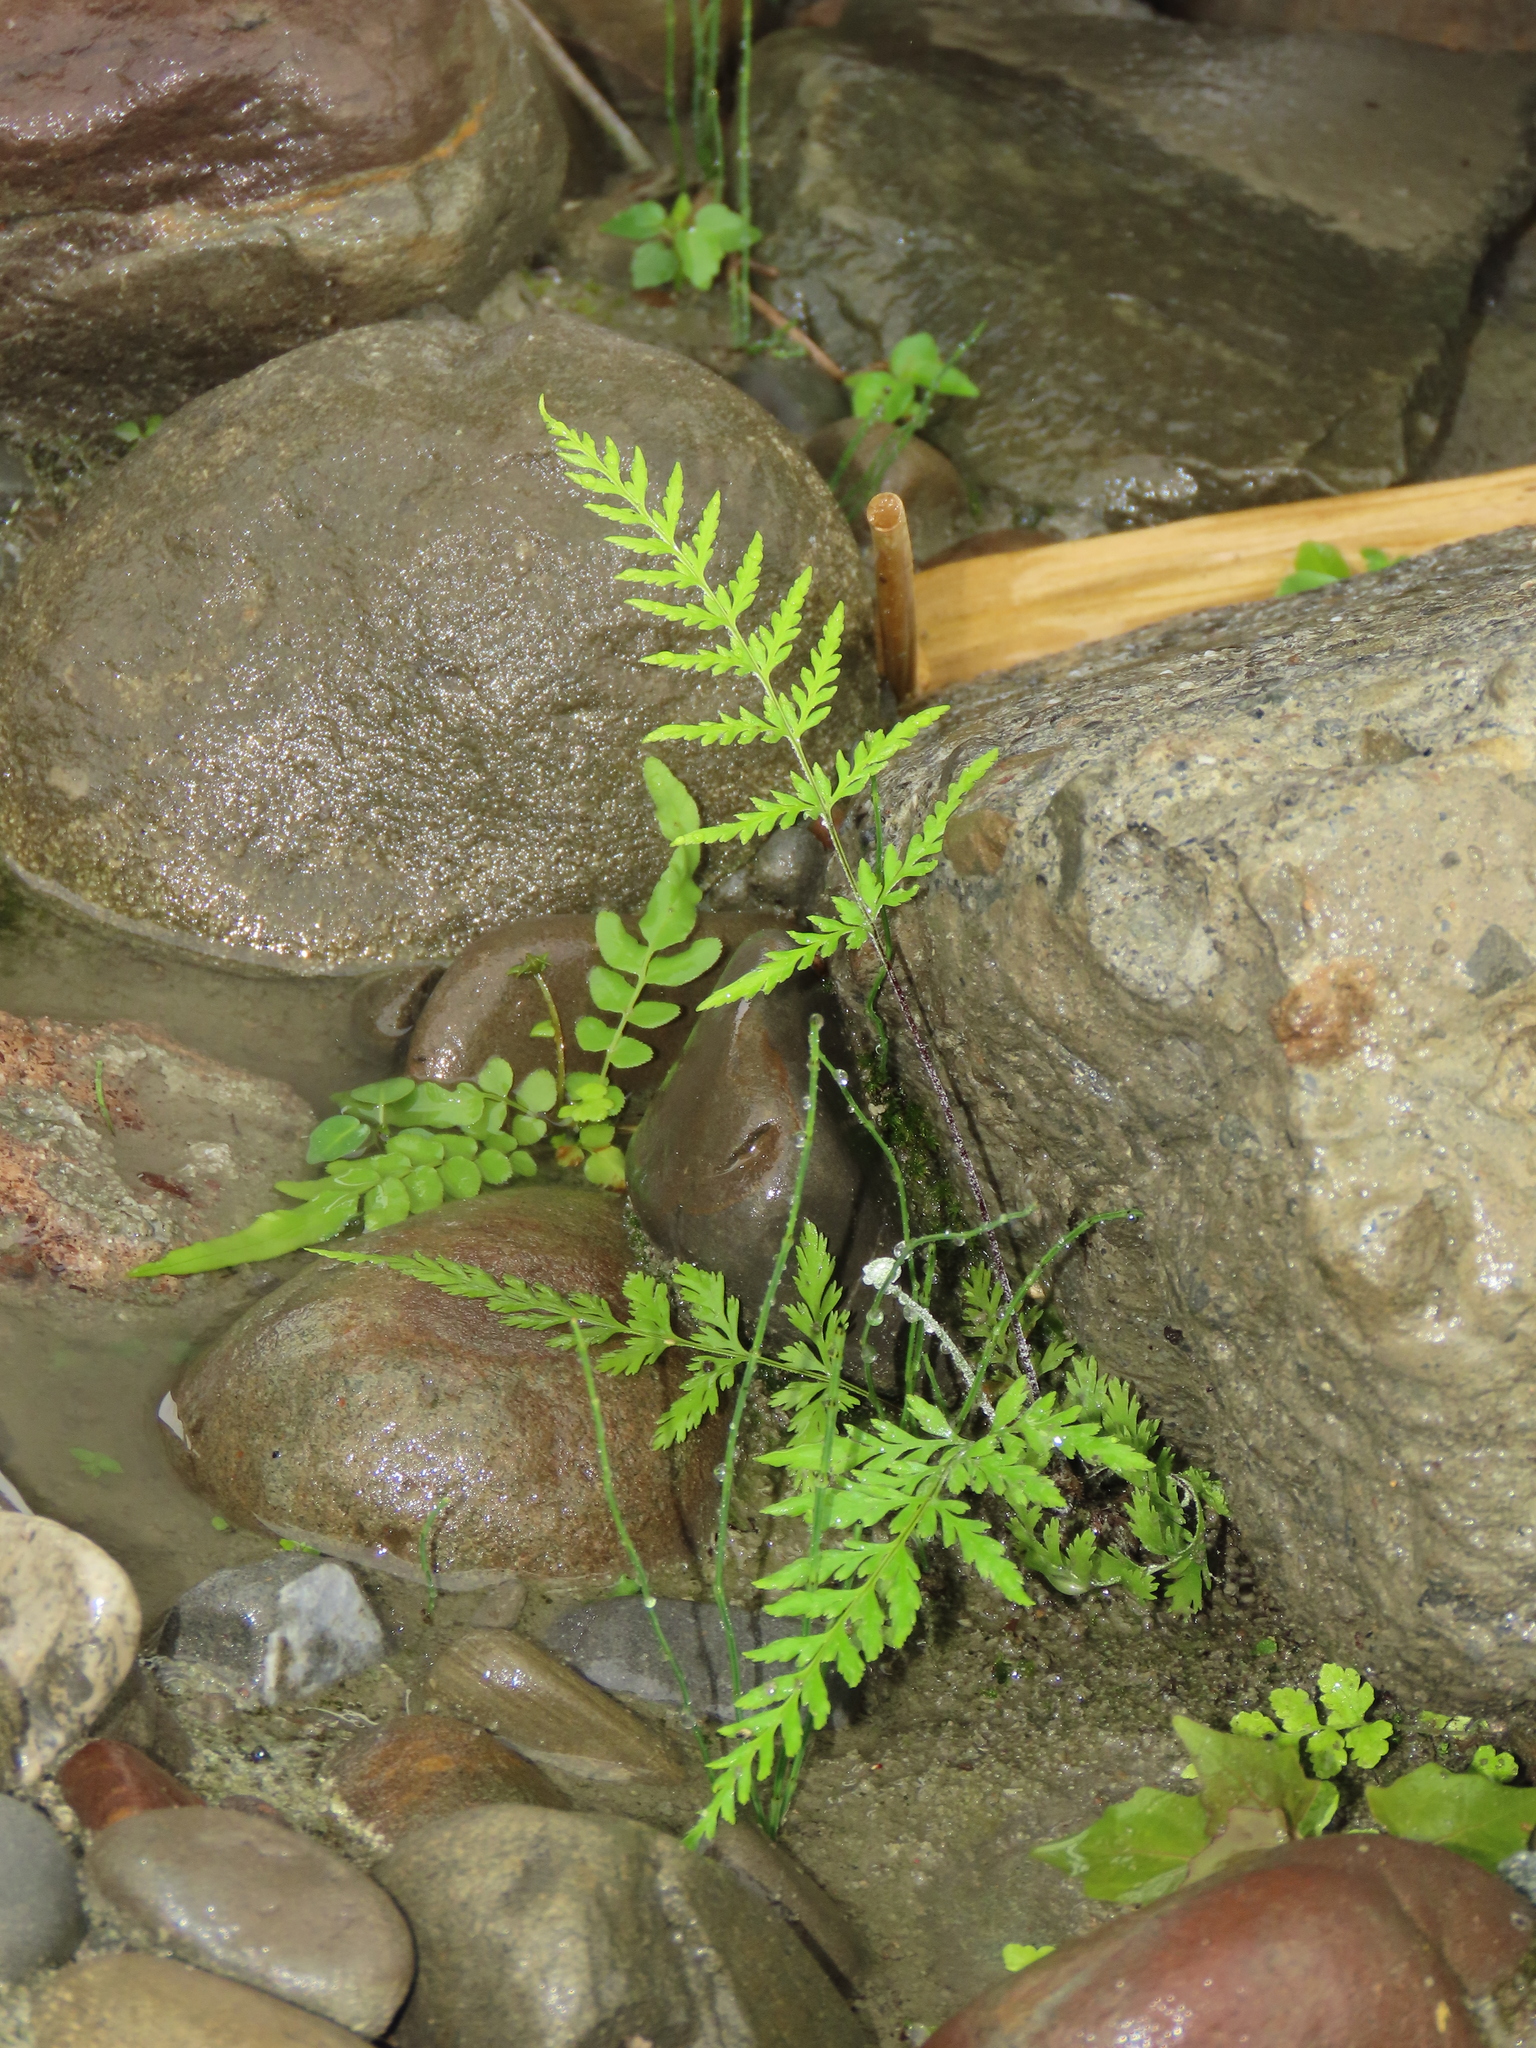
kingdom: Plantae
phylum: Tracheophyta
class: Polypodiopsida
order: Polypodiales
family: Pteridaceae
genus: Pityrogramma
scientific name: Pityrogramma calomelanos
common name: Dixie silverback fern
